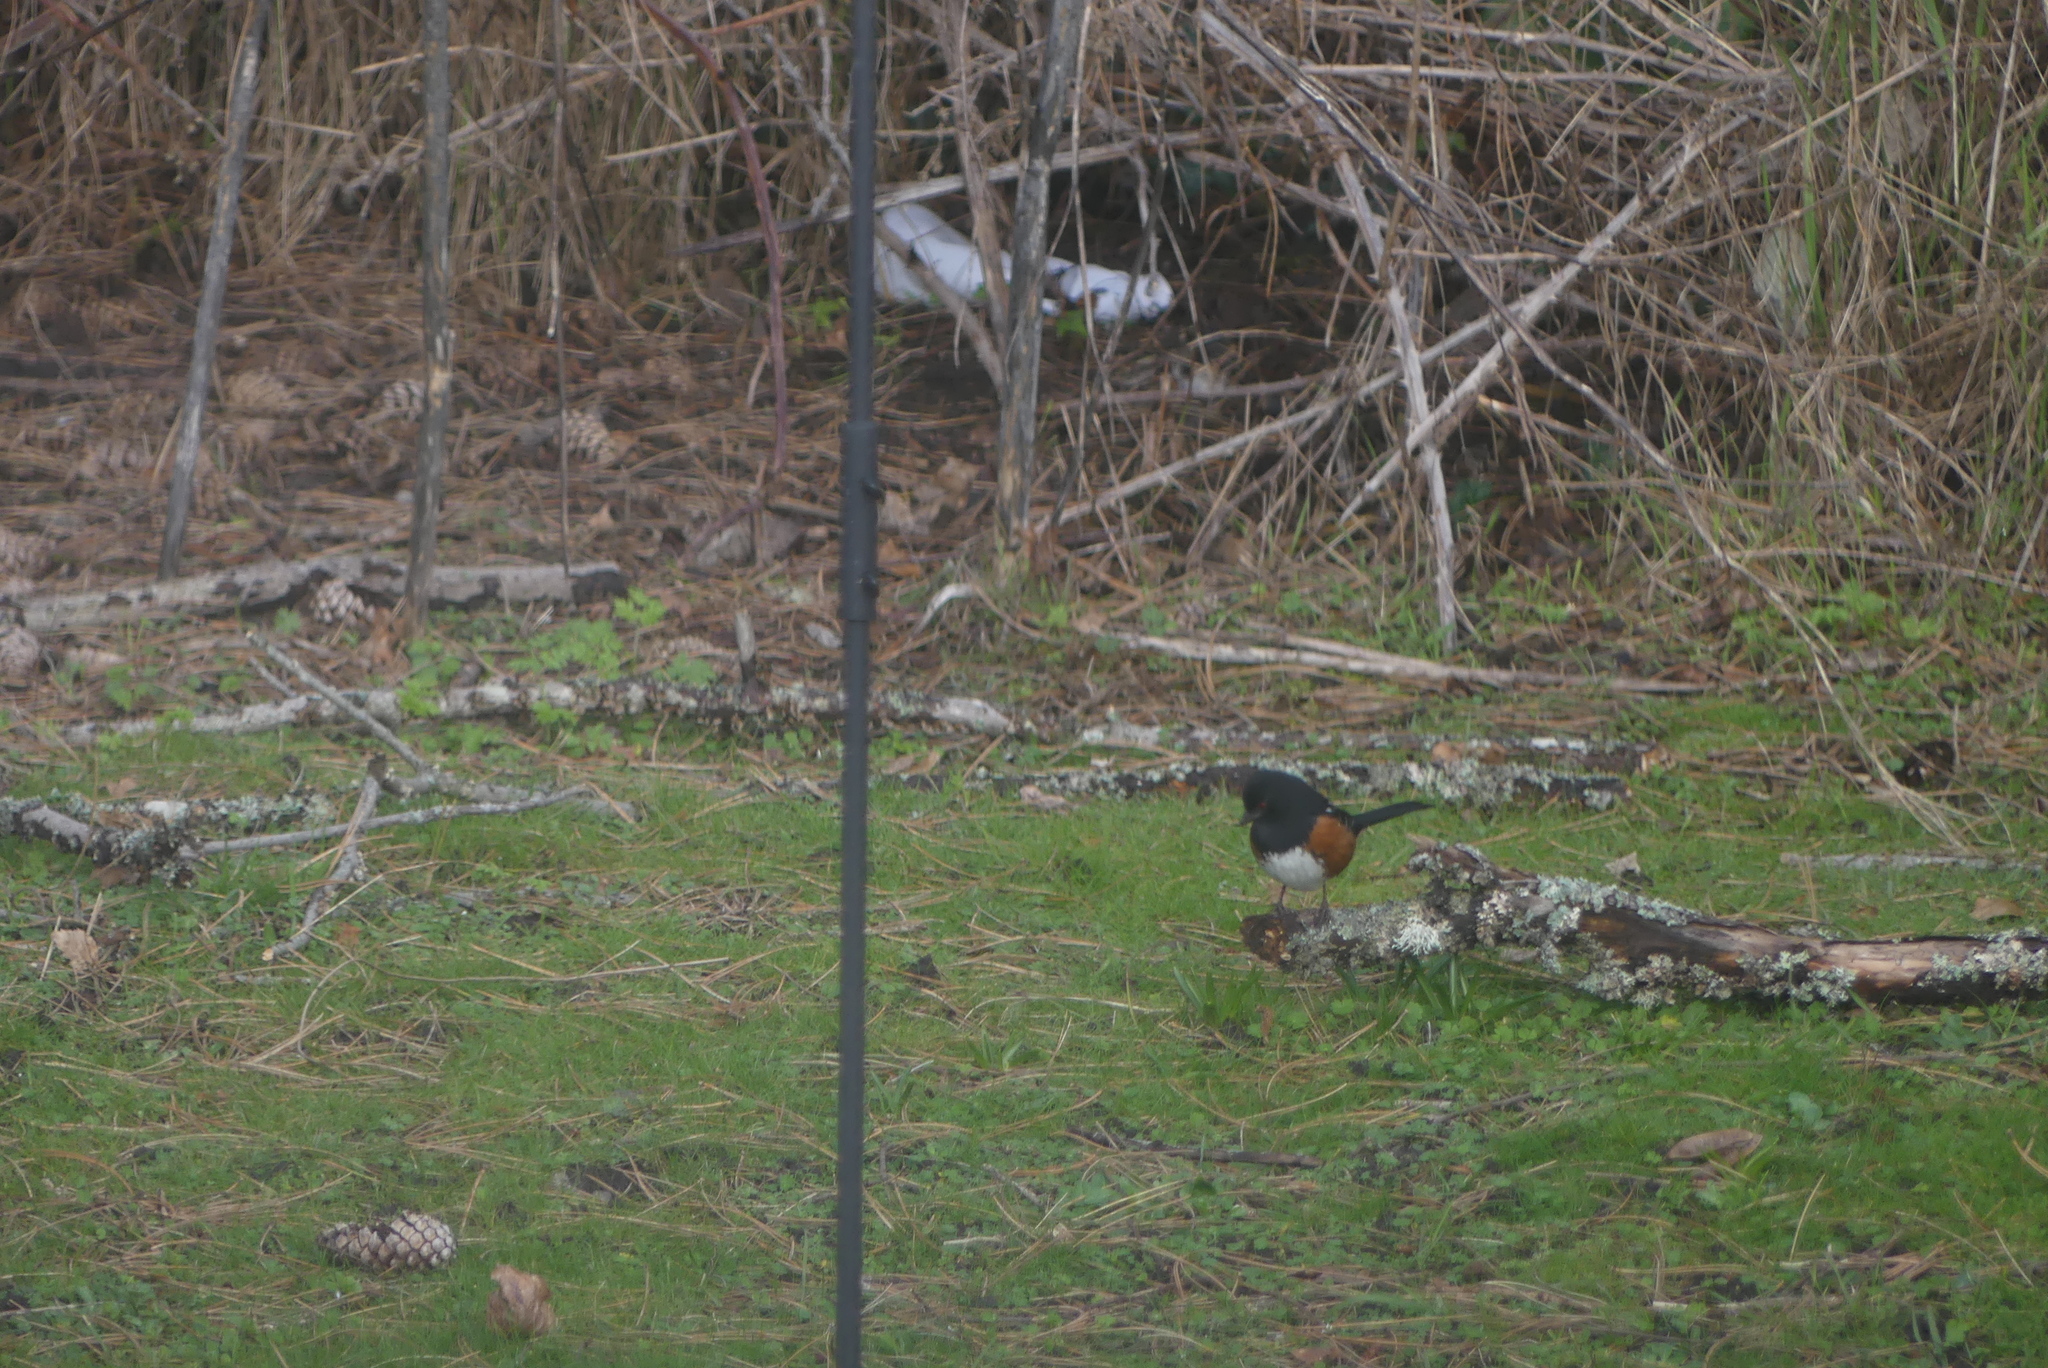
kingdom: Animalia
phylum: Chordata
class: Aves
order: Passeriformes
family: Passerellidae
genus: Pipilo
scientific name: Pipilo maculatus
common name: Spotted towhee
